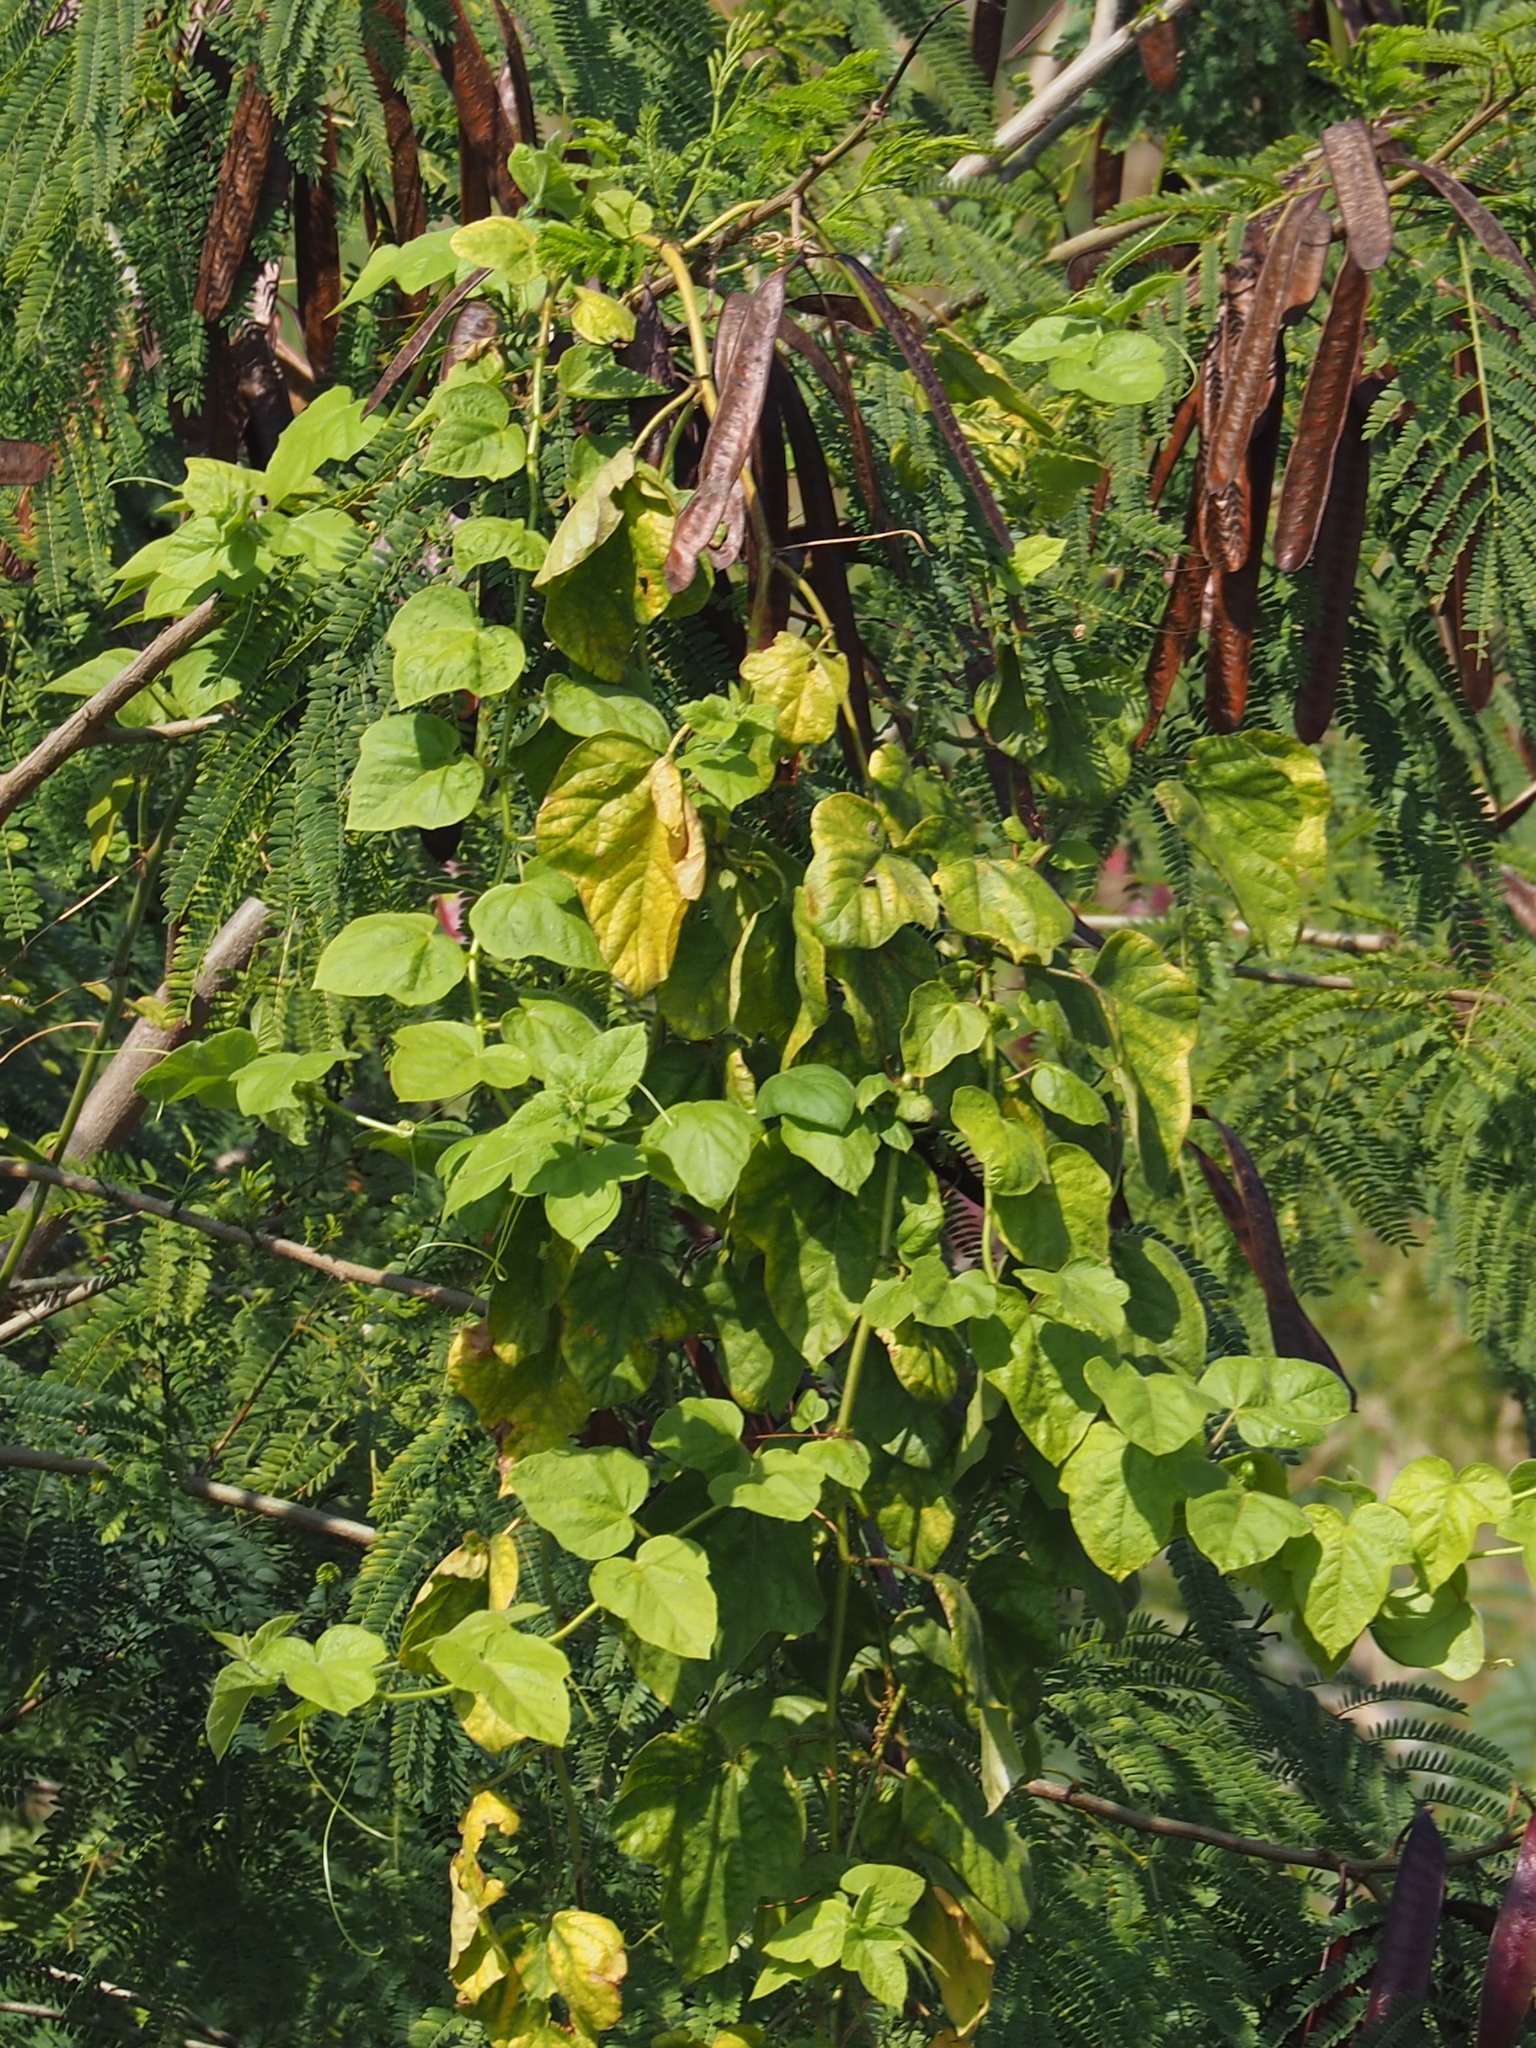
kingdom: Plantae
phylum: Tracheophyta
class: Magnoliopsida
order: Malpighiales
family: Passifloraceae
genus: Passiflora
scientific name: Passiflora vesicaria
